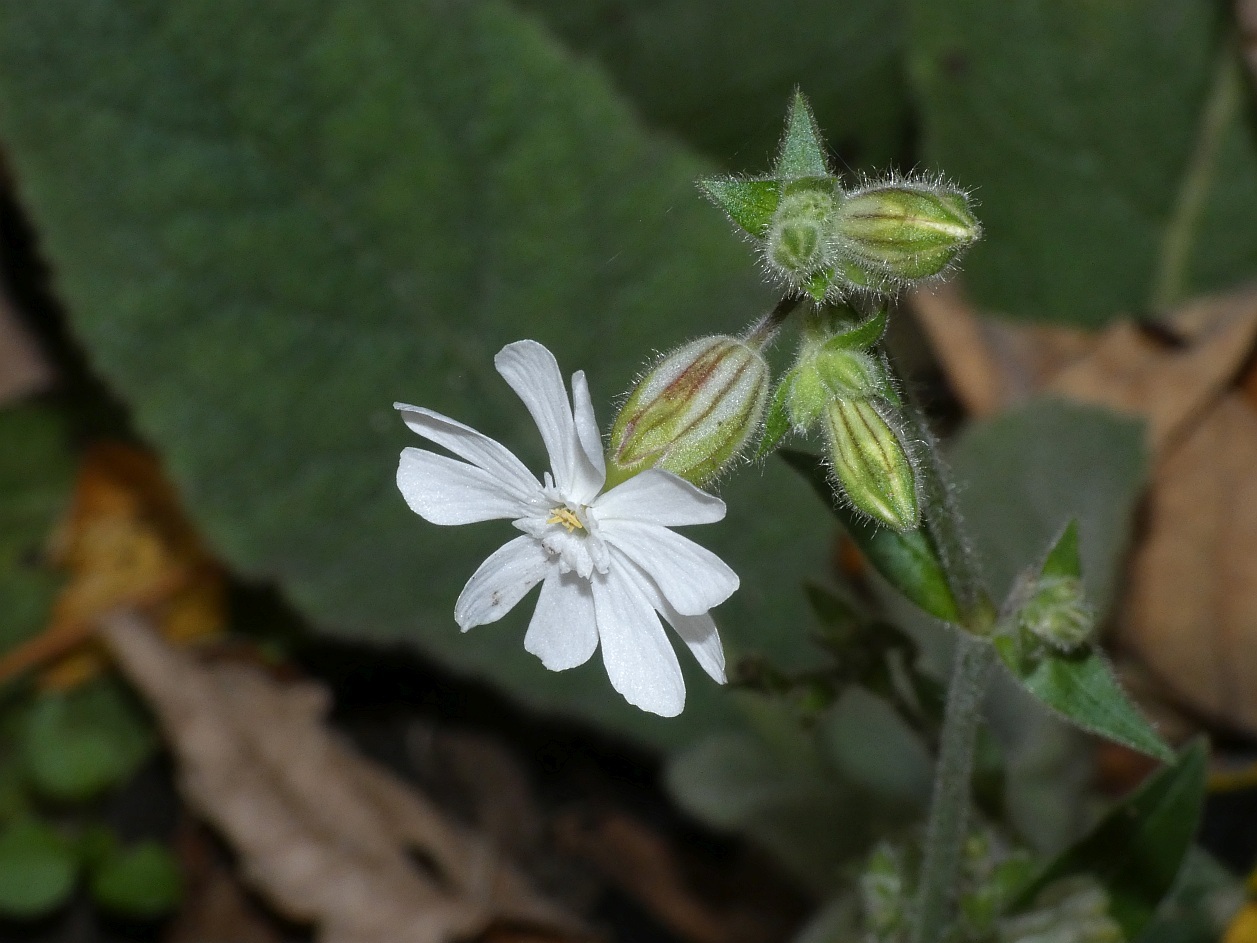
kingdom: Plantae
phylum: Tracheophyta
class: Magnoliopsida
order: Caryophyllales
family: Caryophyllaceae
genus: Silene
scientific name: Silene latifolia
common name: White campion
